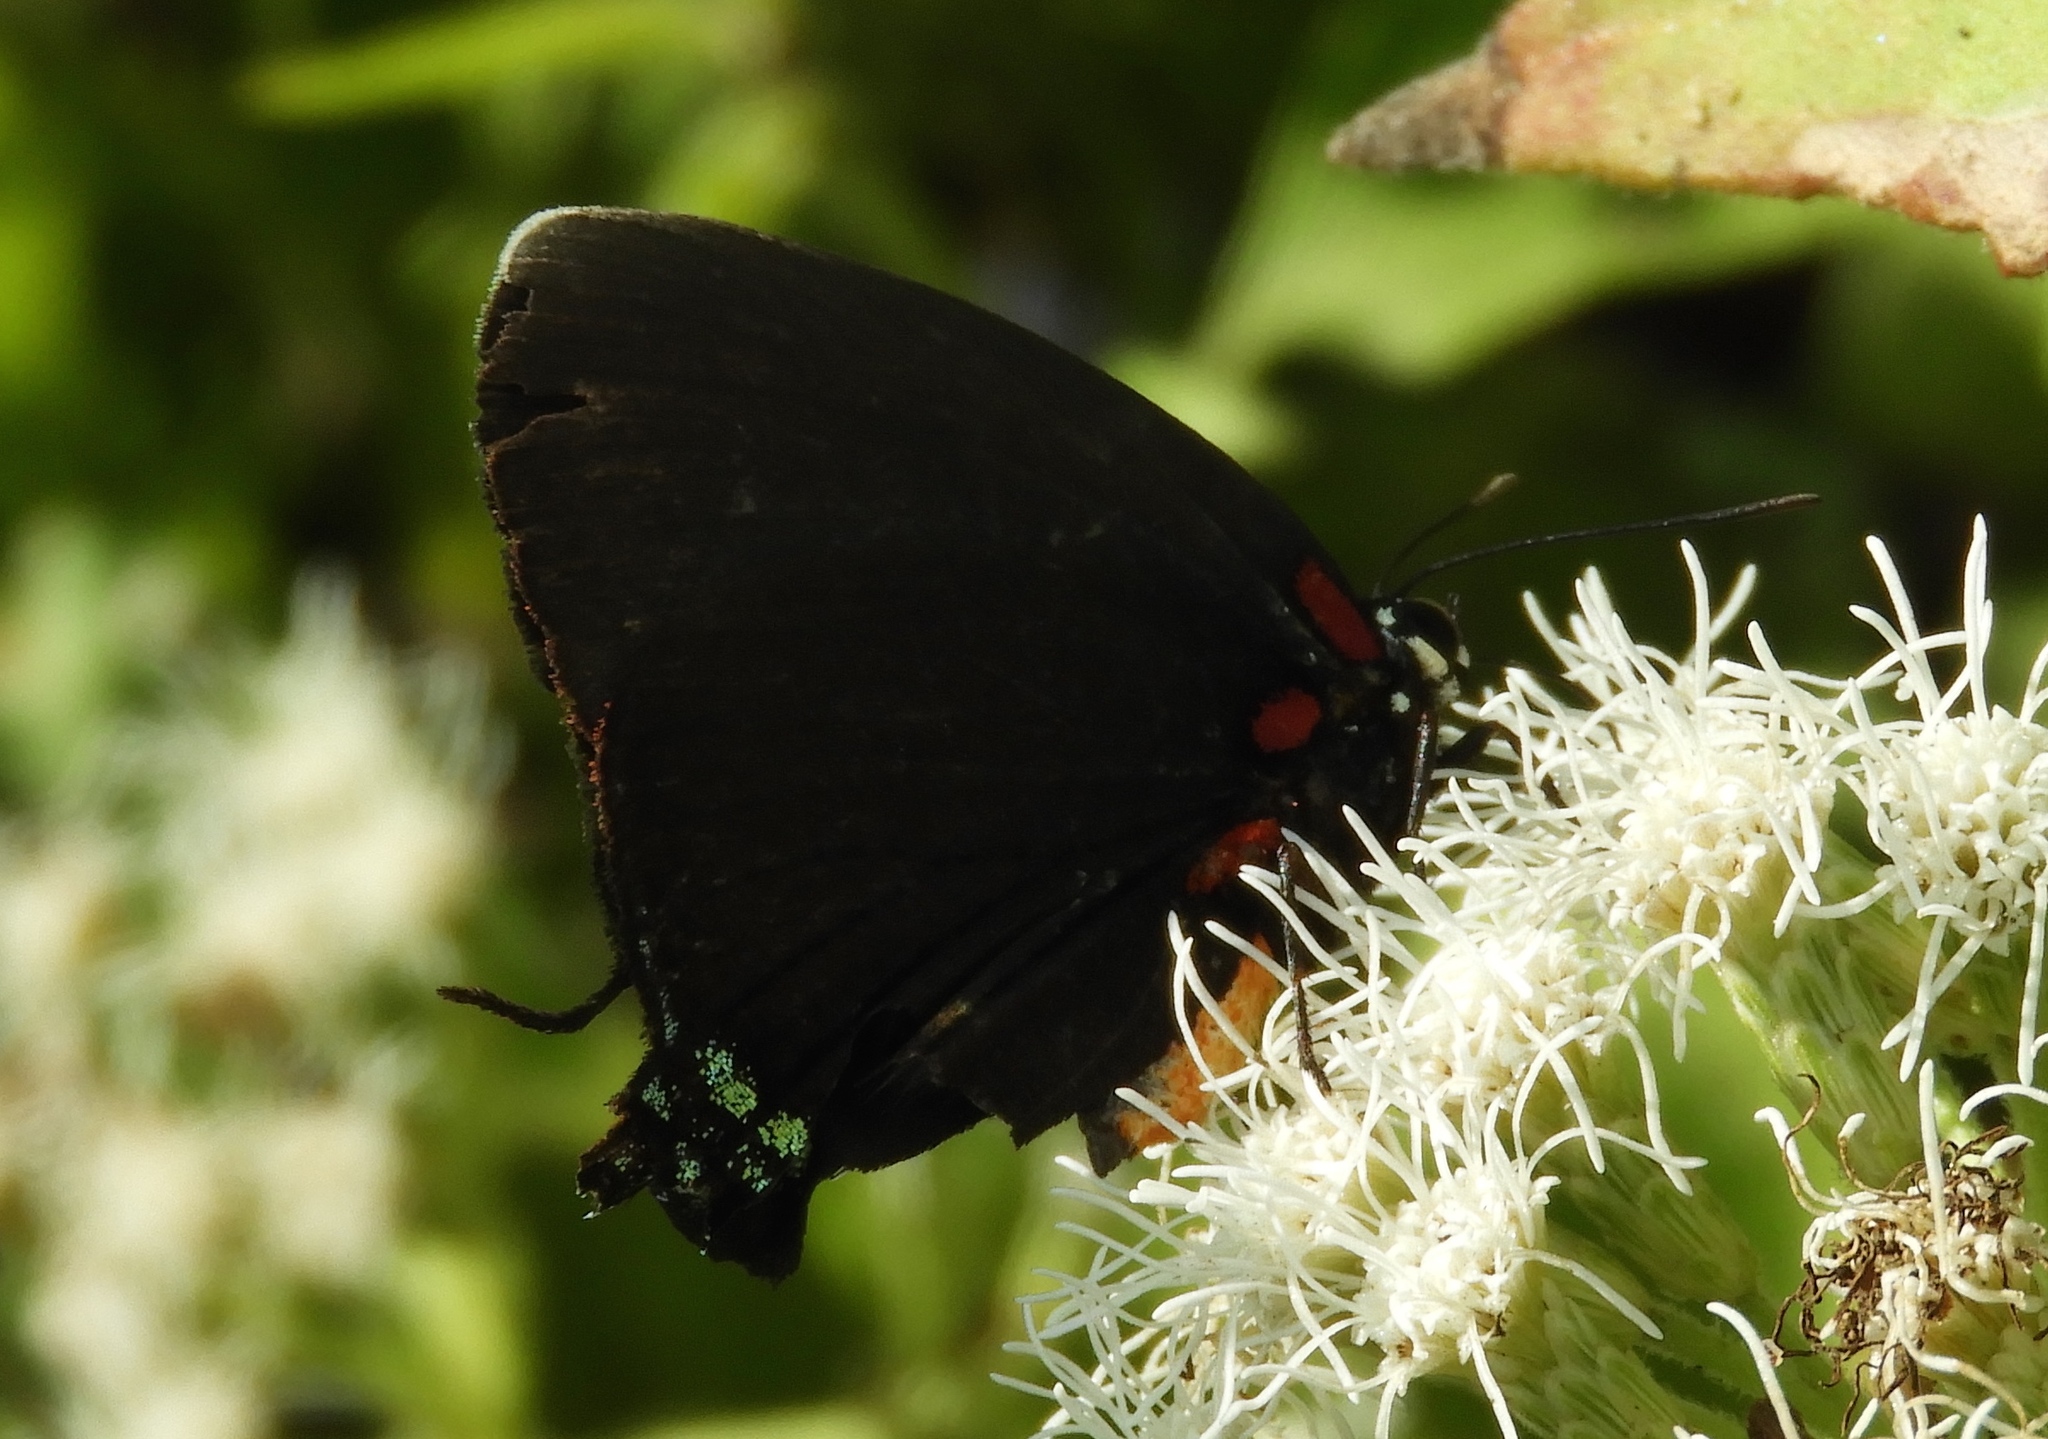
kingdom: Animalia
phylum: Arthropoda
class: Insecta
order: Lepidoptera
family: Lycaenidae
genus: Atlides
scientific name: Atlides
